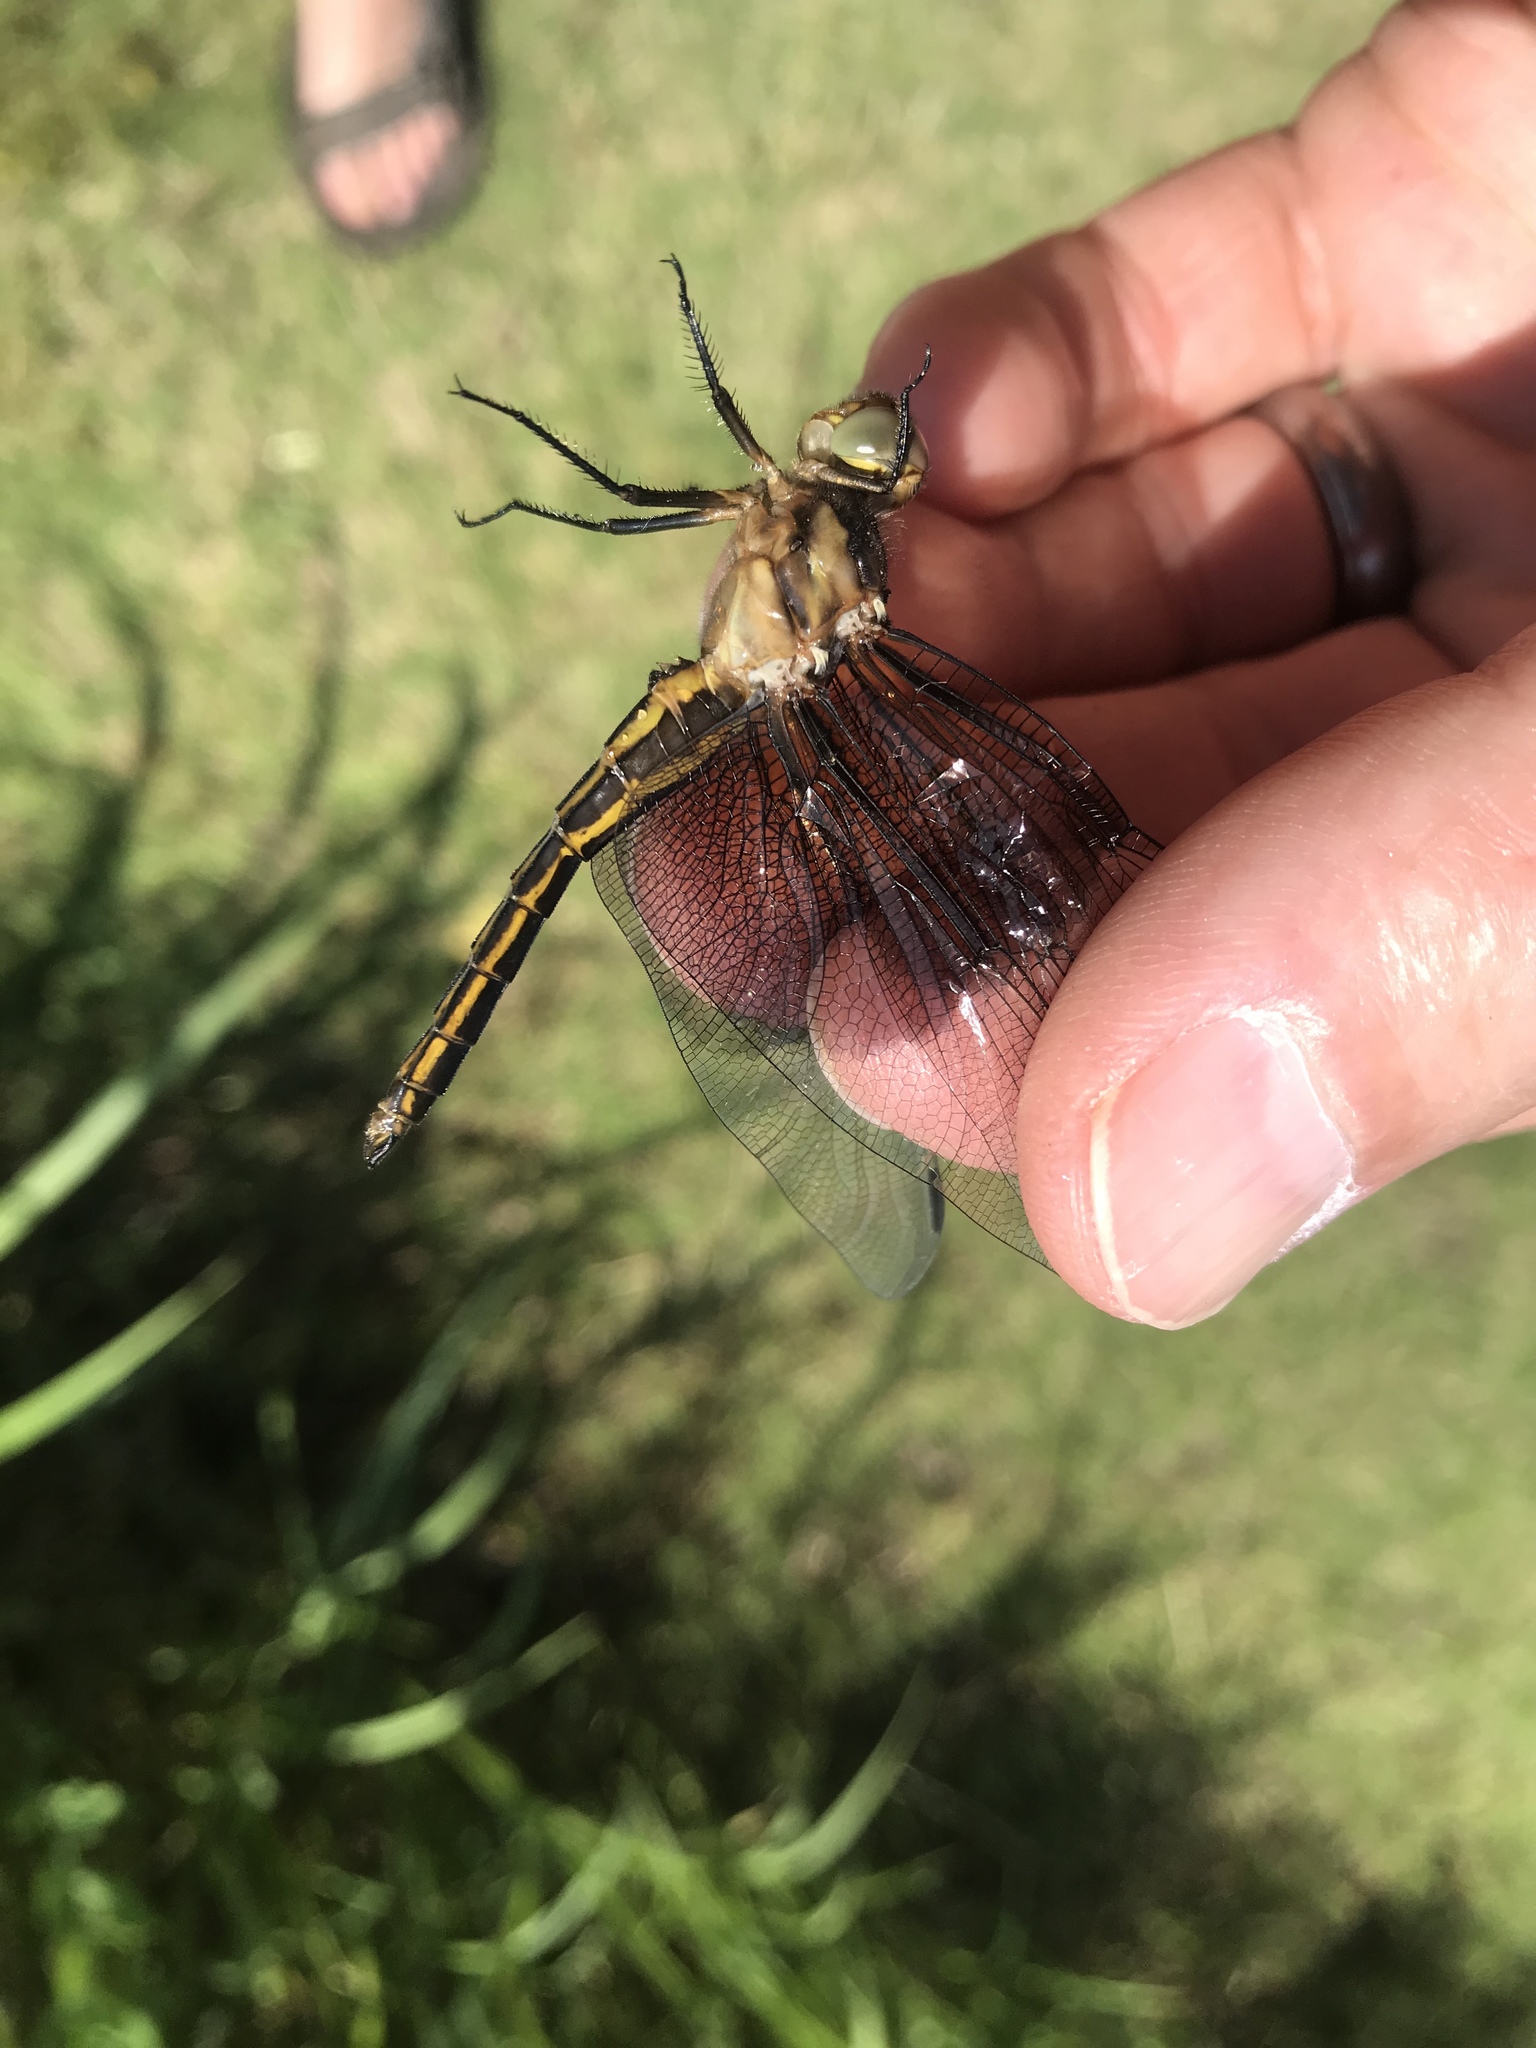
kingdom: Animalia
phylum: Arthropoda
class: Insecta
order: Odonata
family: Libellulidae
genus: Libellula
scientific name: Libellula luctuosa
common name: Widow skimmer
